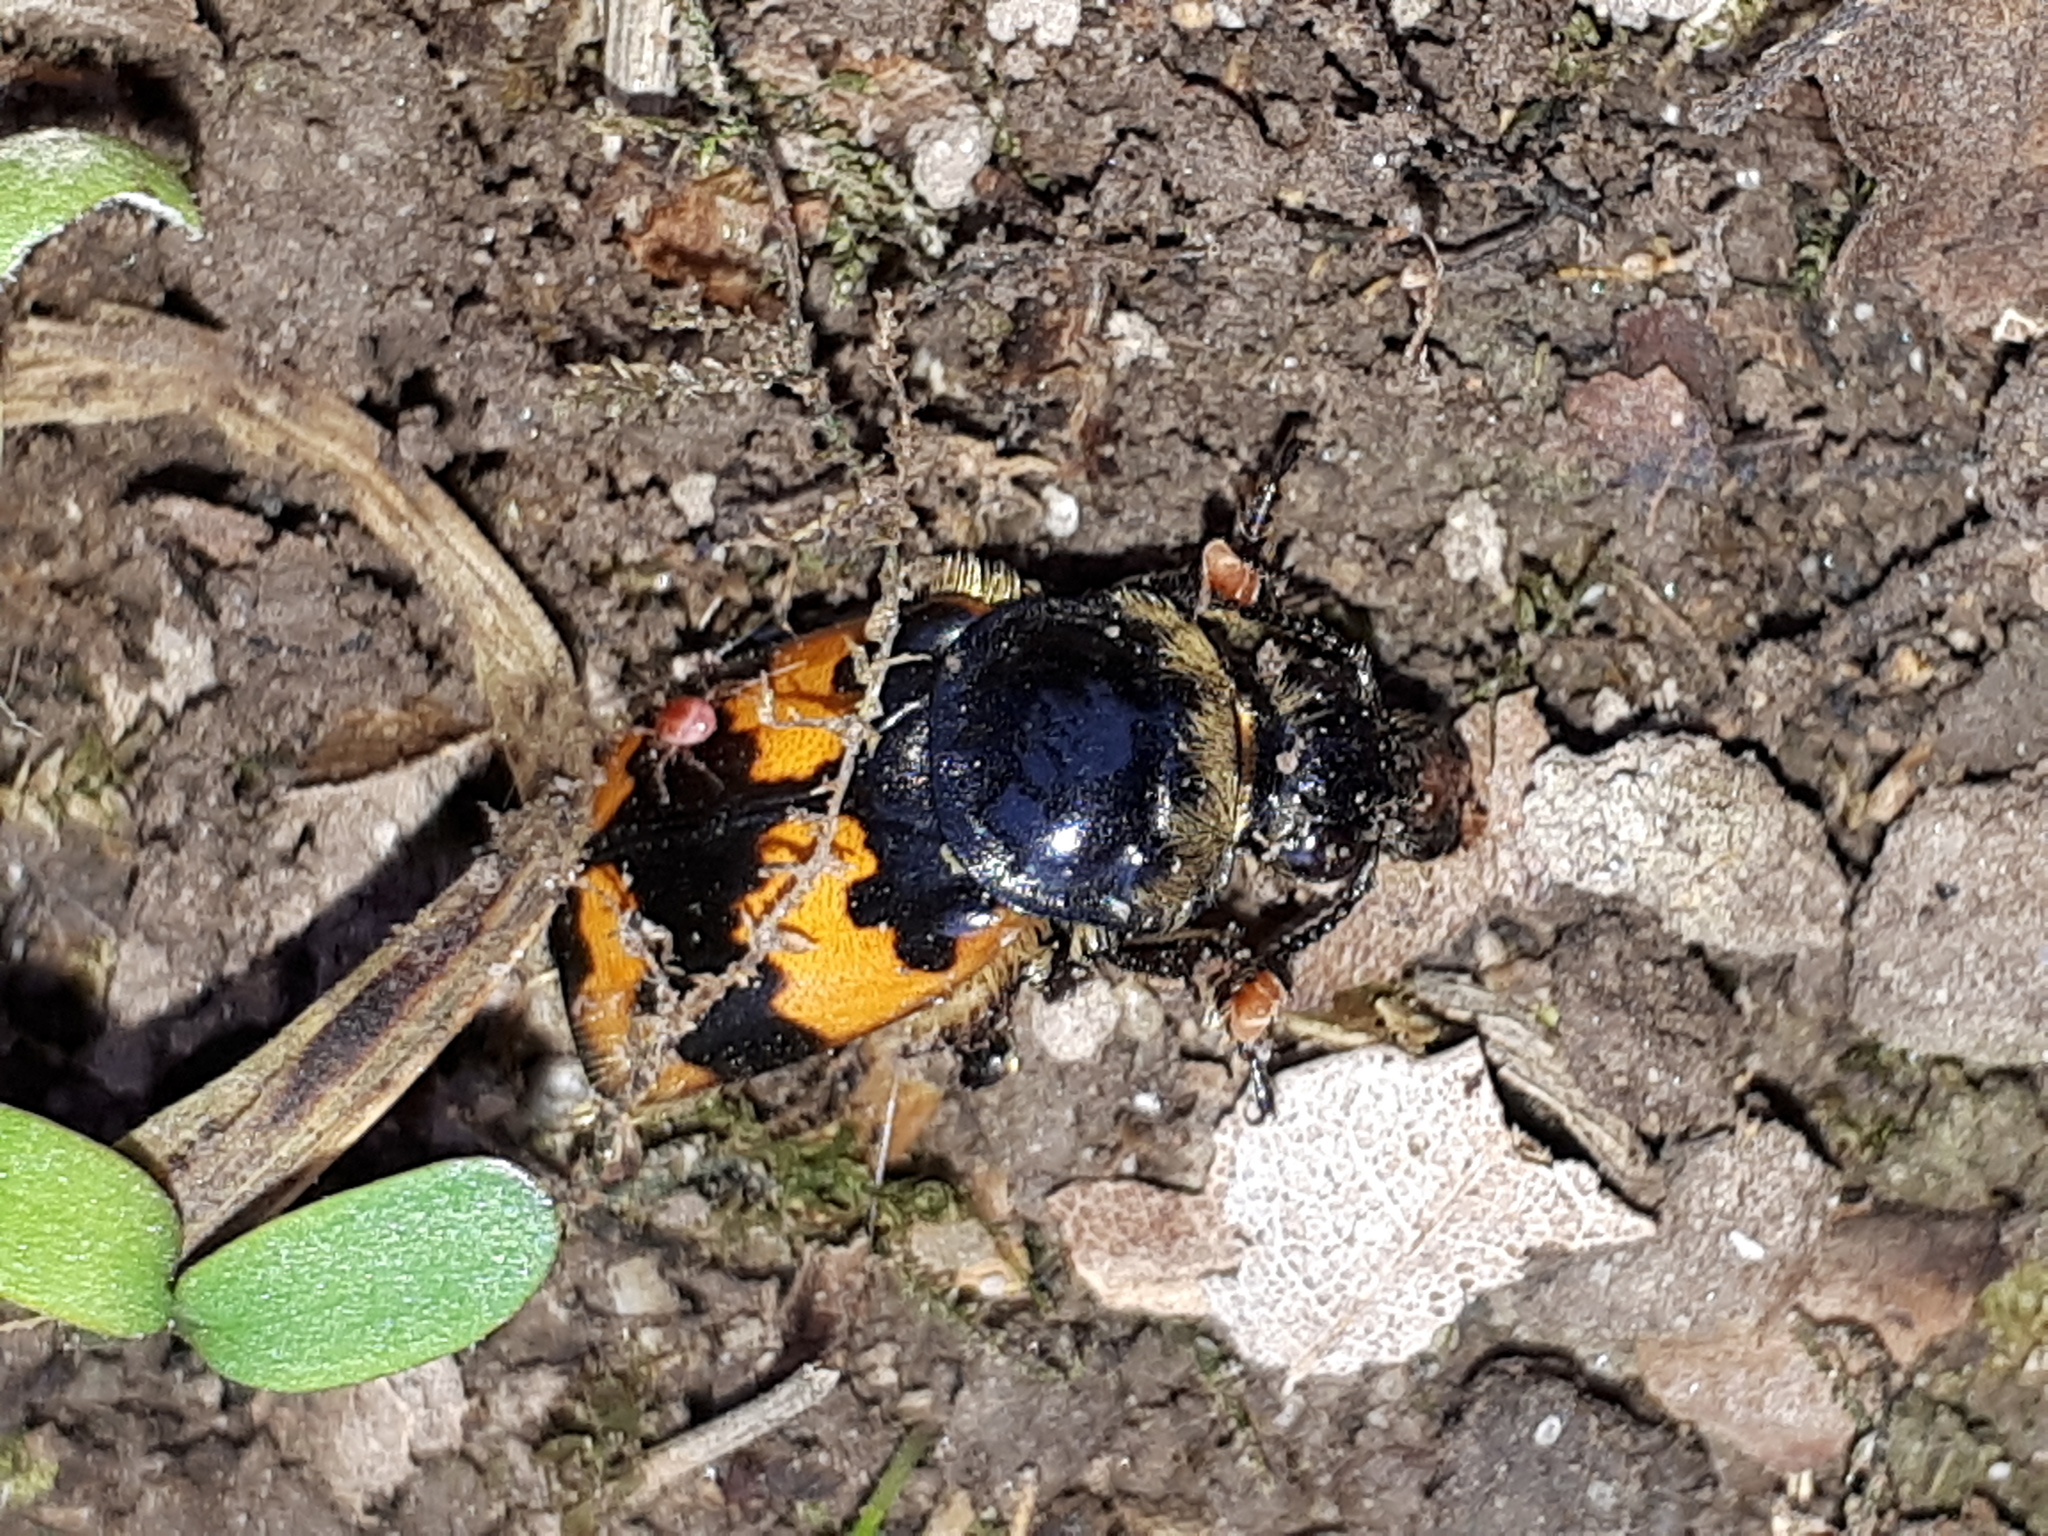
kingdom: Animalia
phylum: Arthropoda
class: Insecta
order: Coleoptera
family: Staphylinidae
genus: Nicrophorus
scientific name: Nicrophorus vespillo
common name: Common burying beetle
